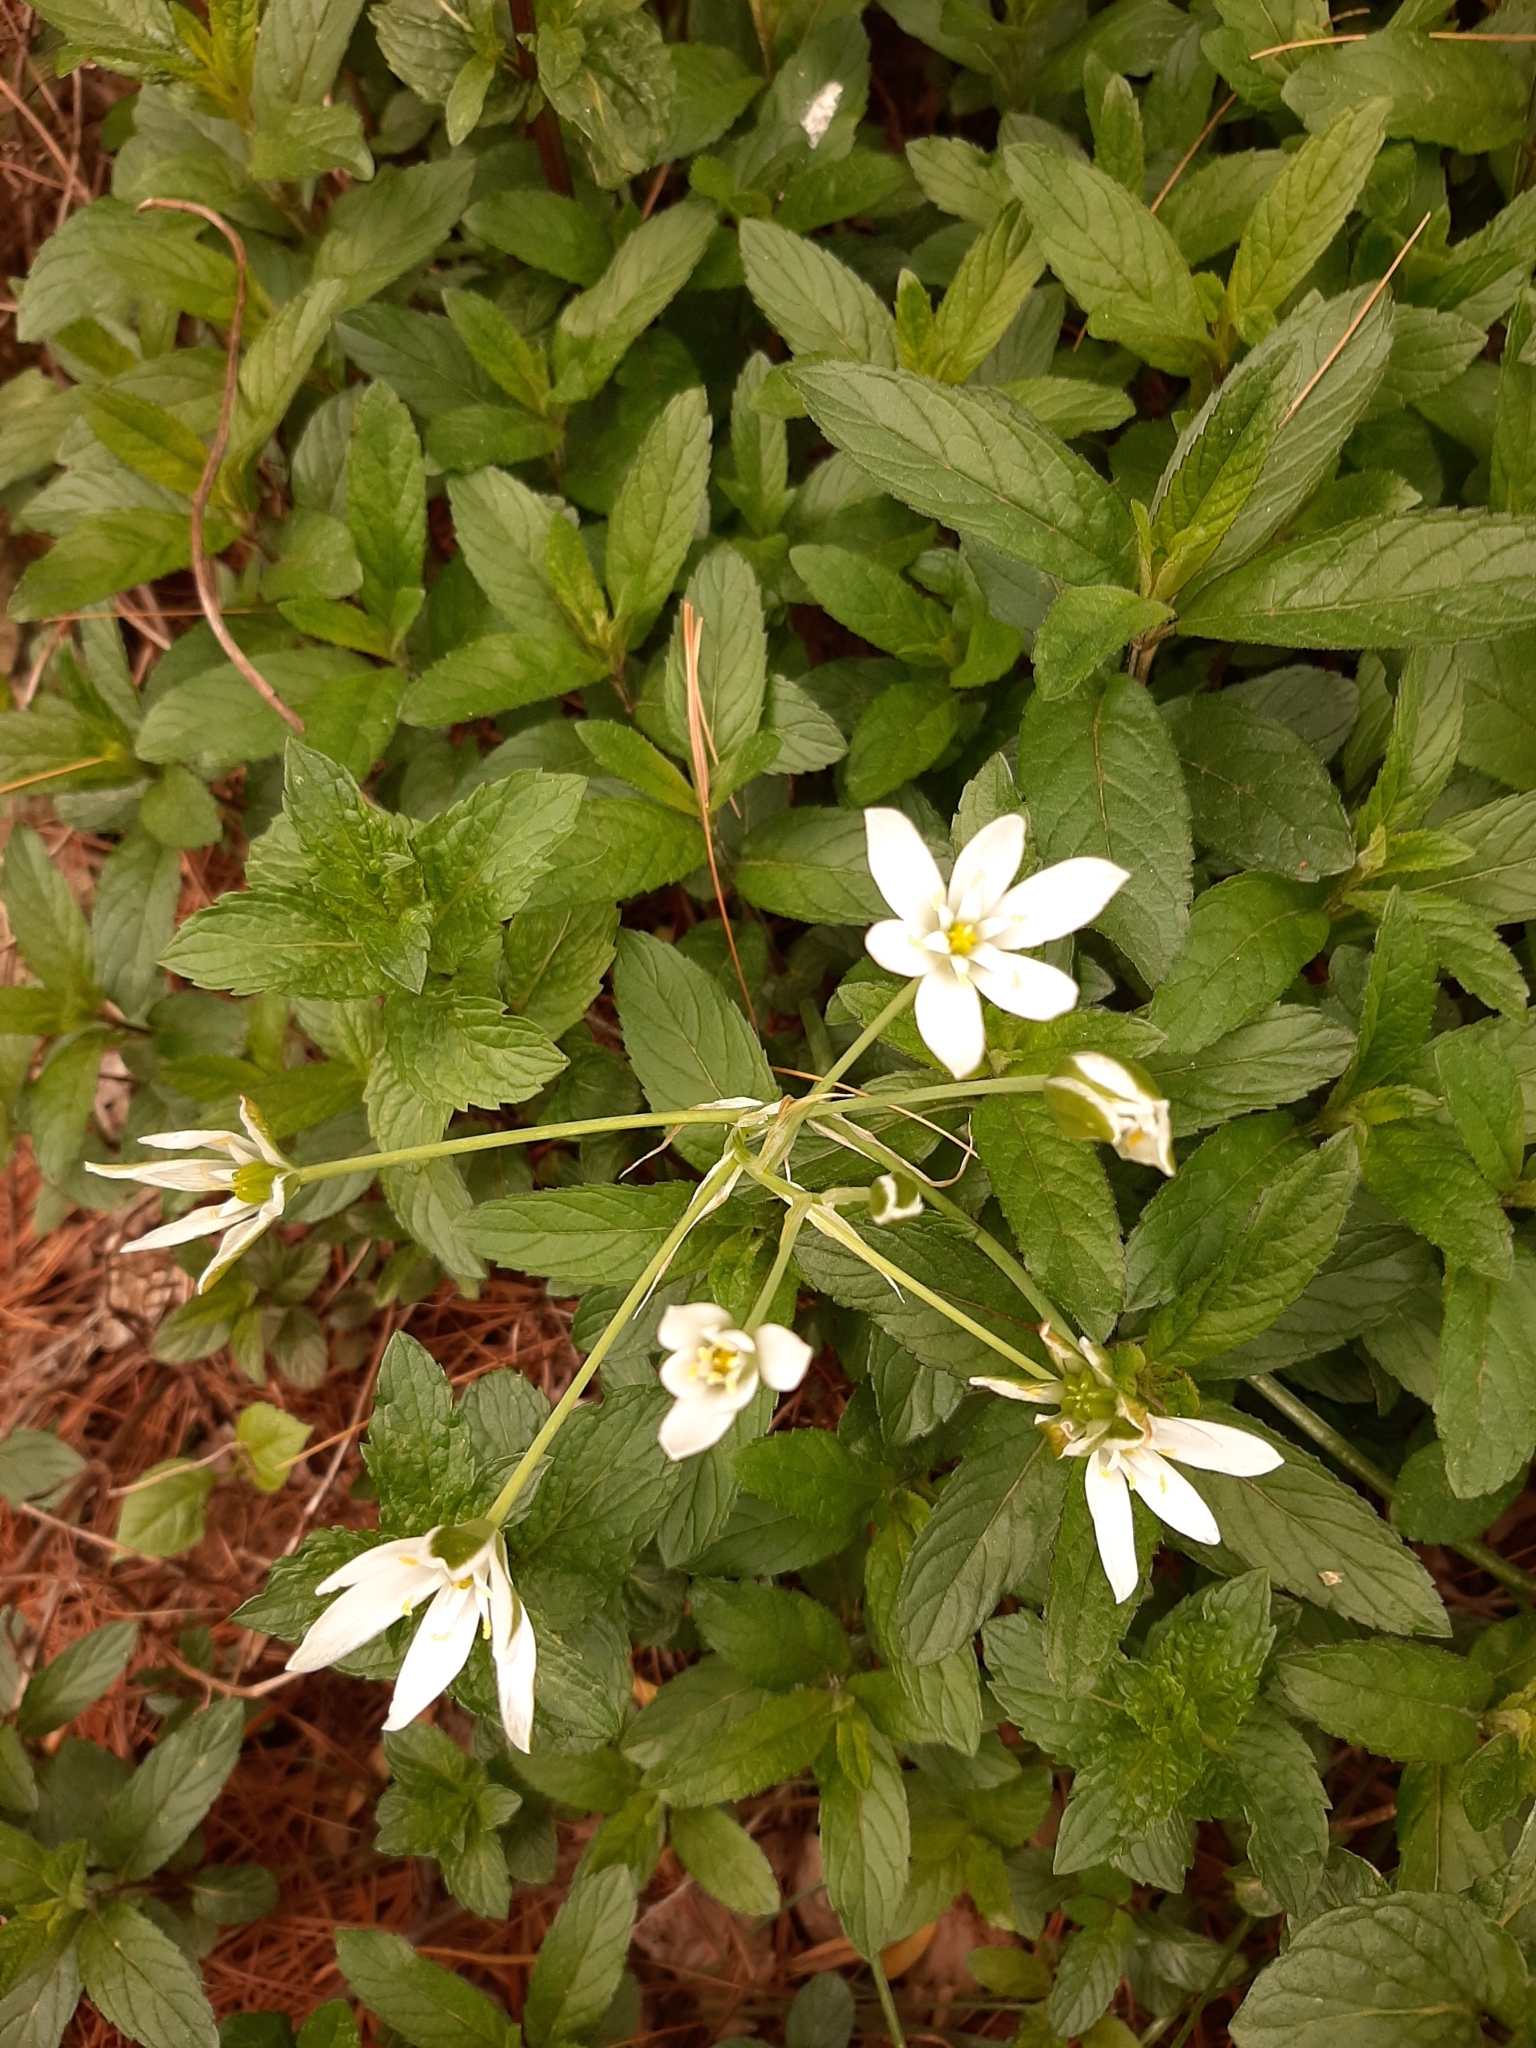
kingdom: Plantae
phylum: Tracheophyta
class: Liliopsida
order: Asparagales
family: Asparagaceae
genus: Ornithogalum
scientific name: Ornithogalum umbellatum
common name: Garden star-of-bethlehem
